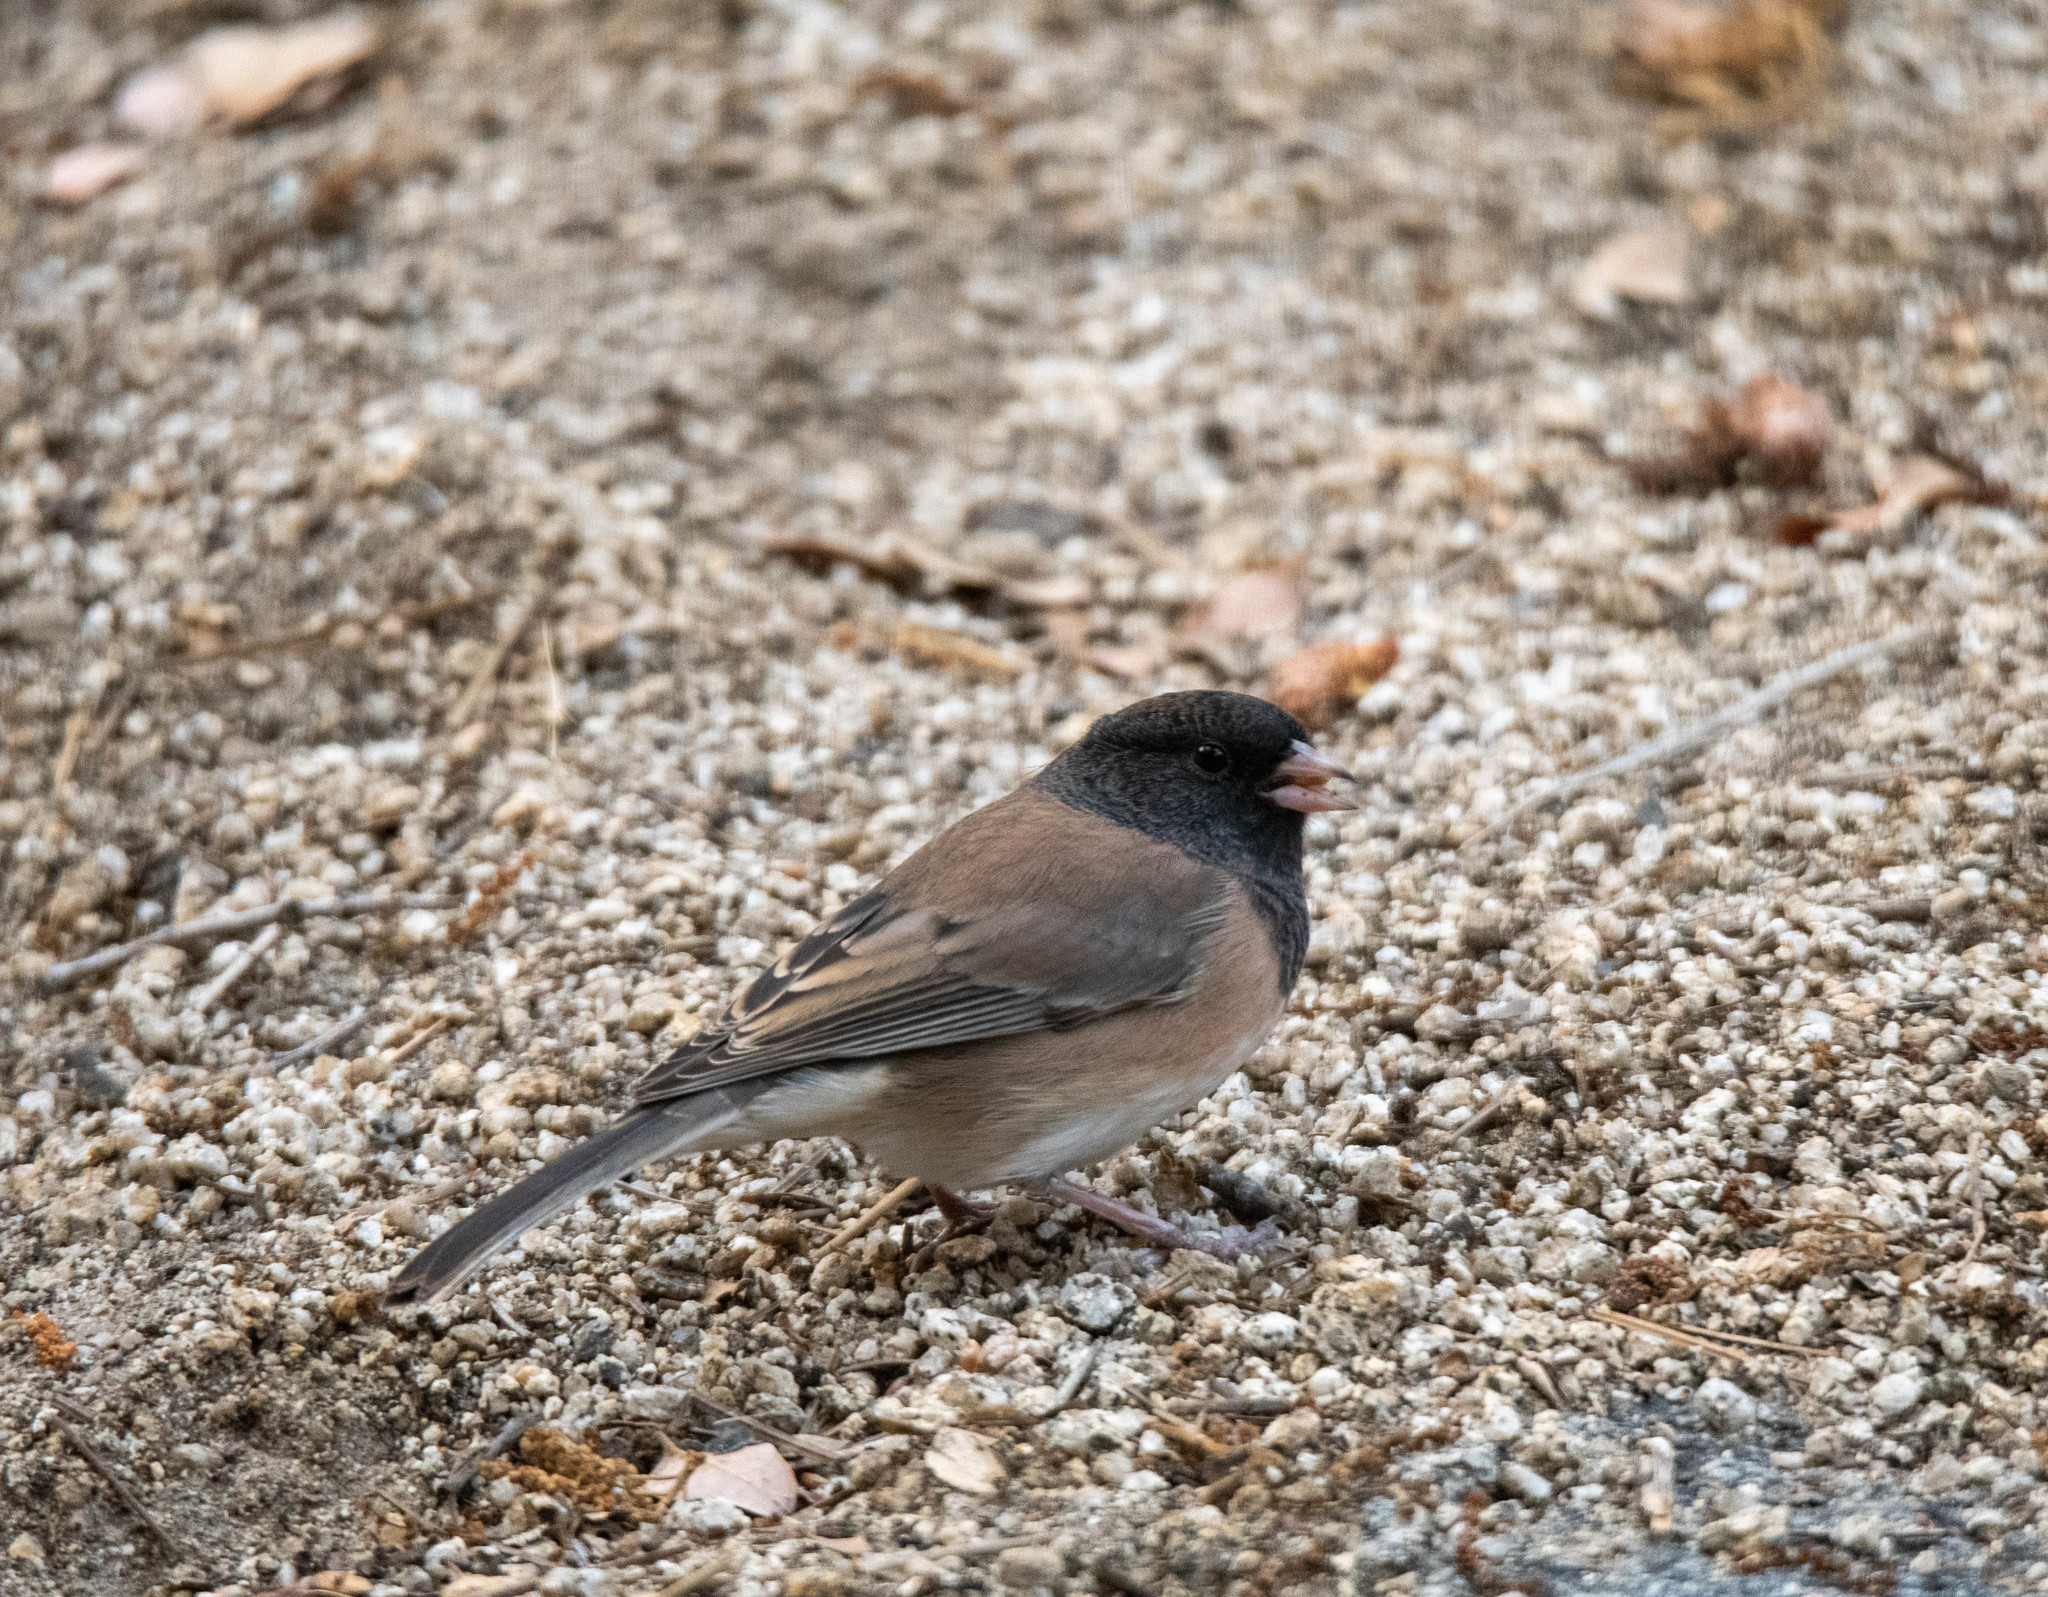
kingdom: Animalia
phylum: Chordata
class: Aves
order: Passeriformes
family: Passerellidae
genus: Junco
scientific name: Junco hyemalis
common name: Dark-eyed junco
